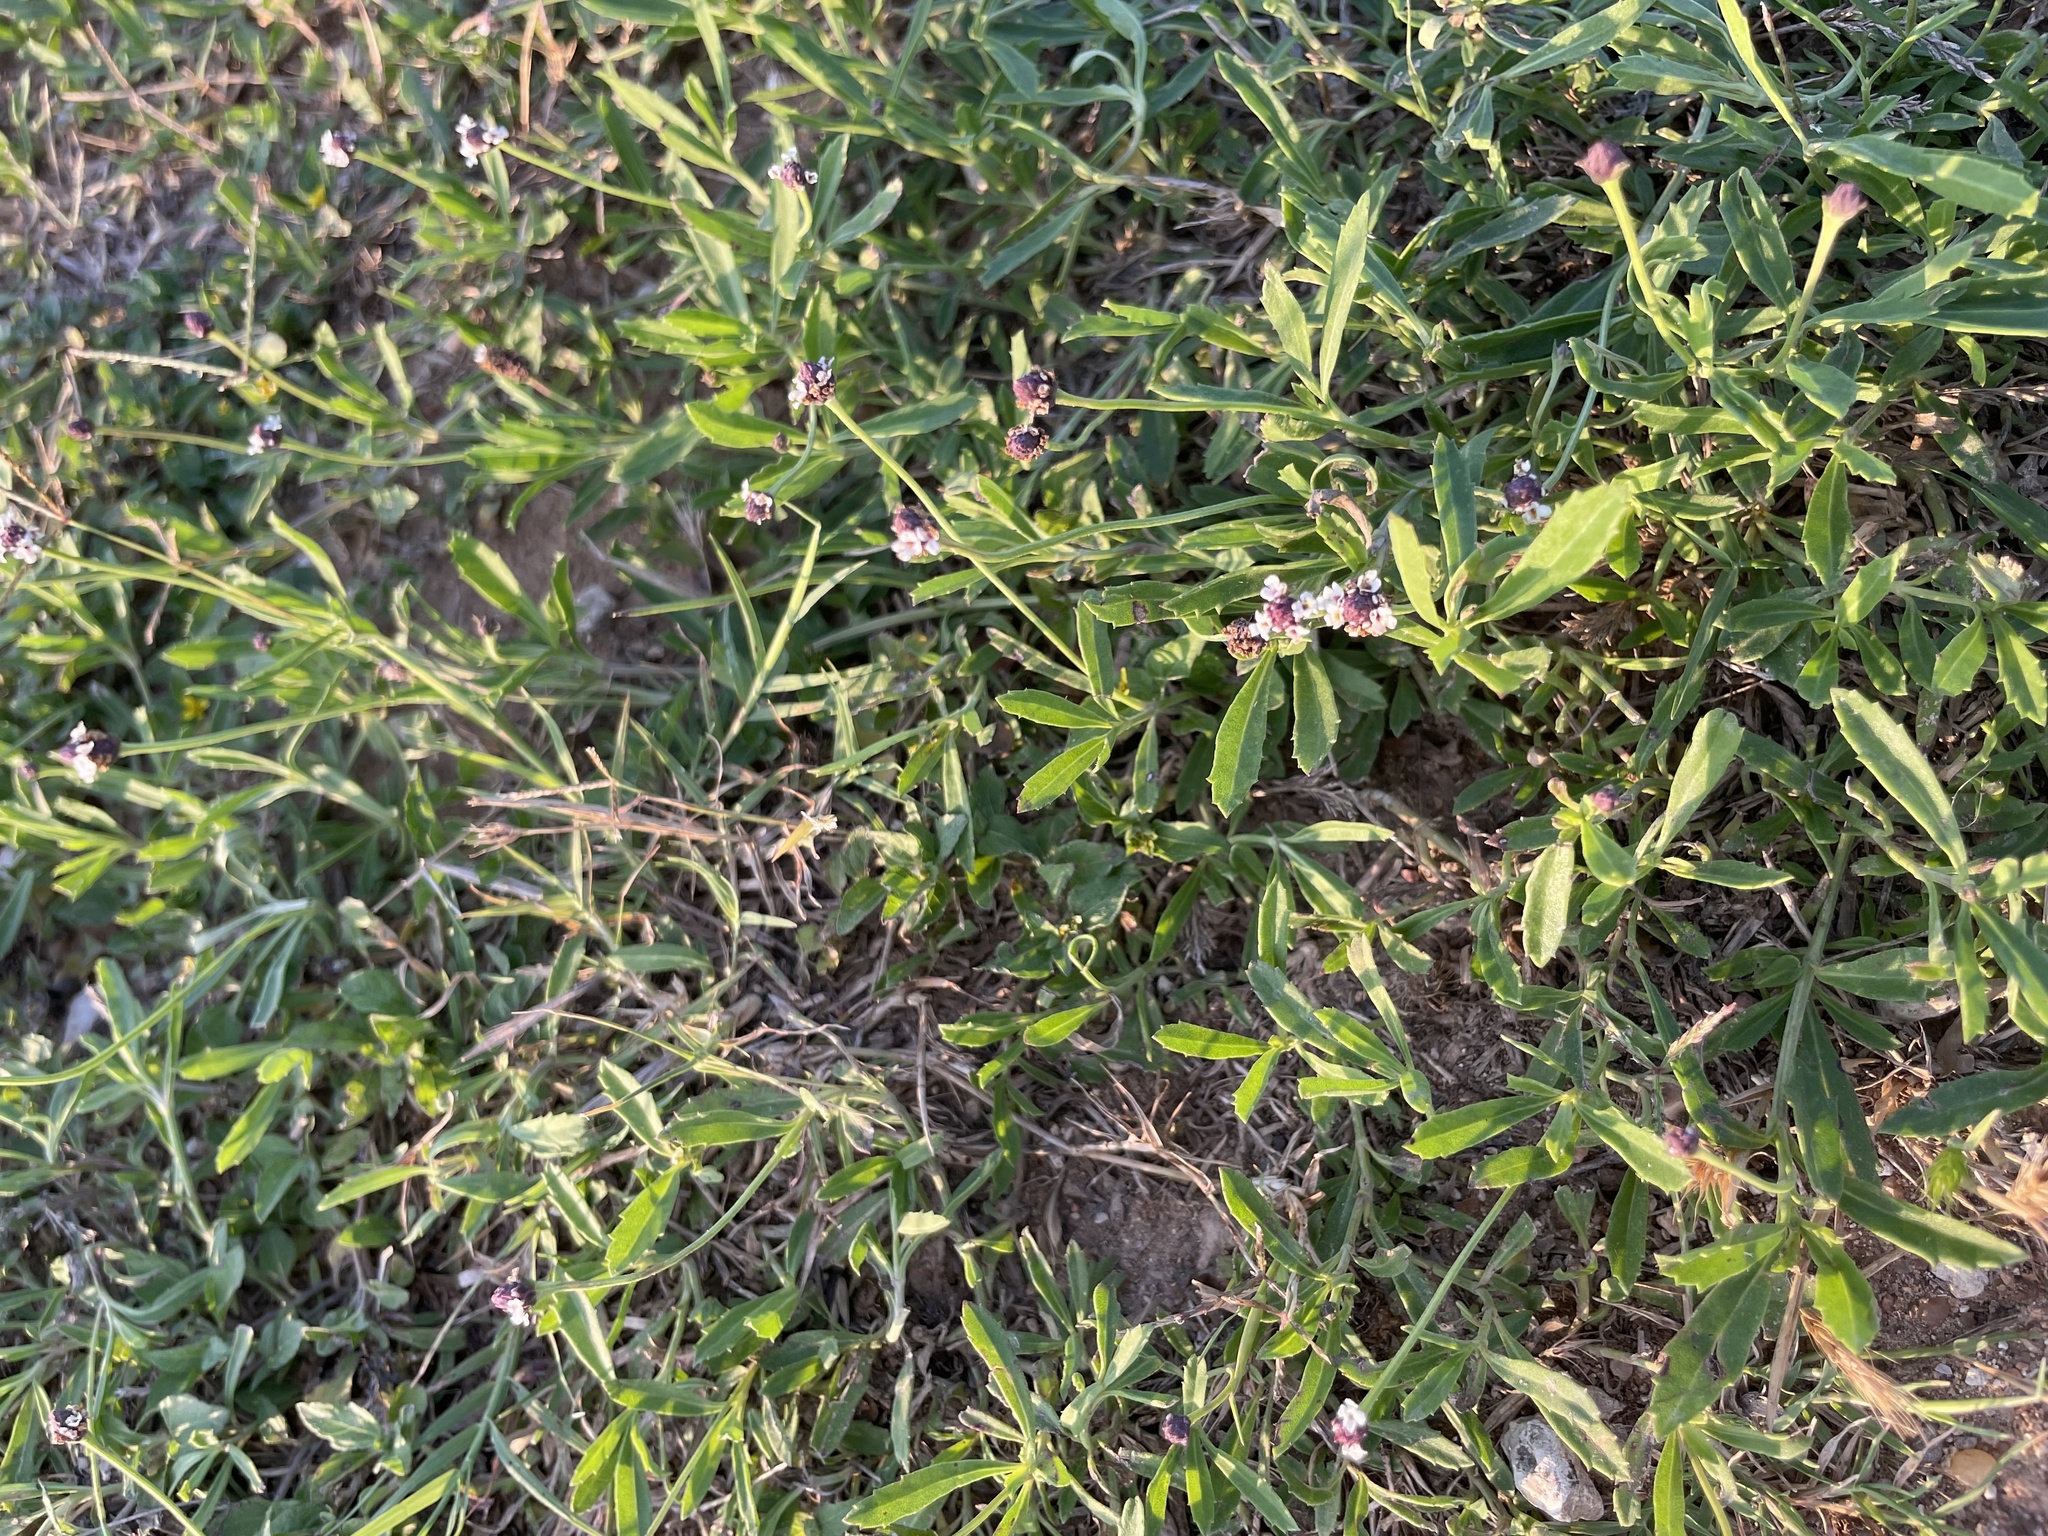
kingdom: Plantae
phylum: Tracheophyta
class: Magnoliopsida
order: Lamiales
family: Verbenaceae
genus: Phyla
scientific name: Phyla nodiflora
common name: Frogfruit
